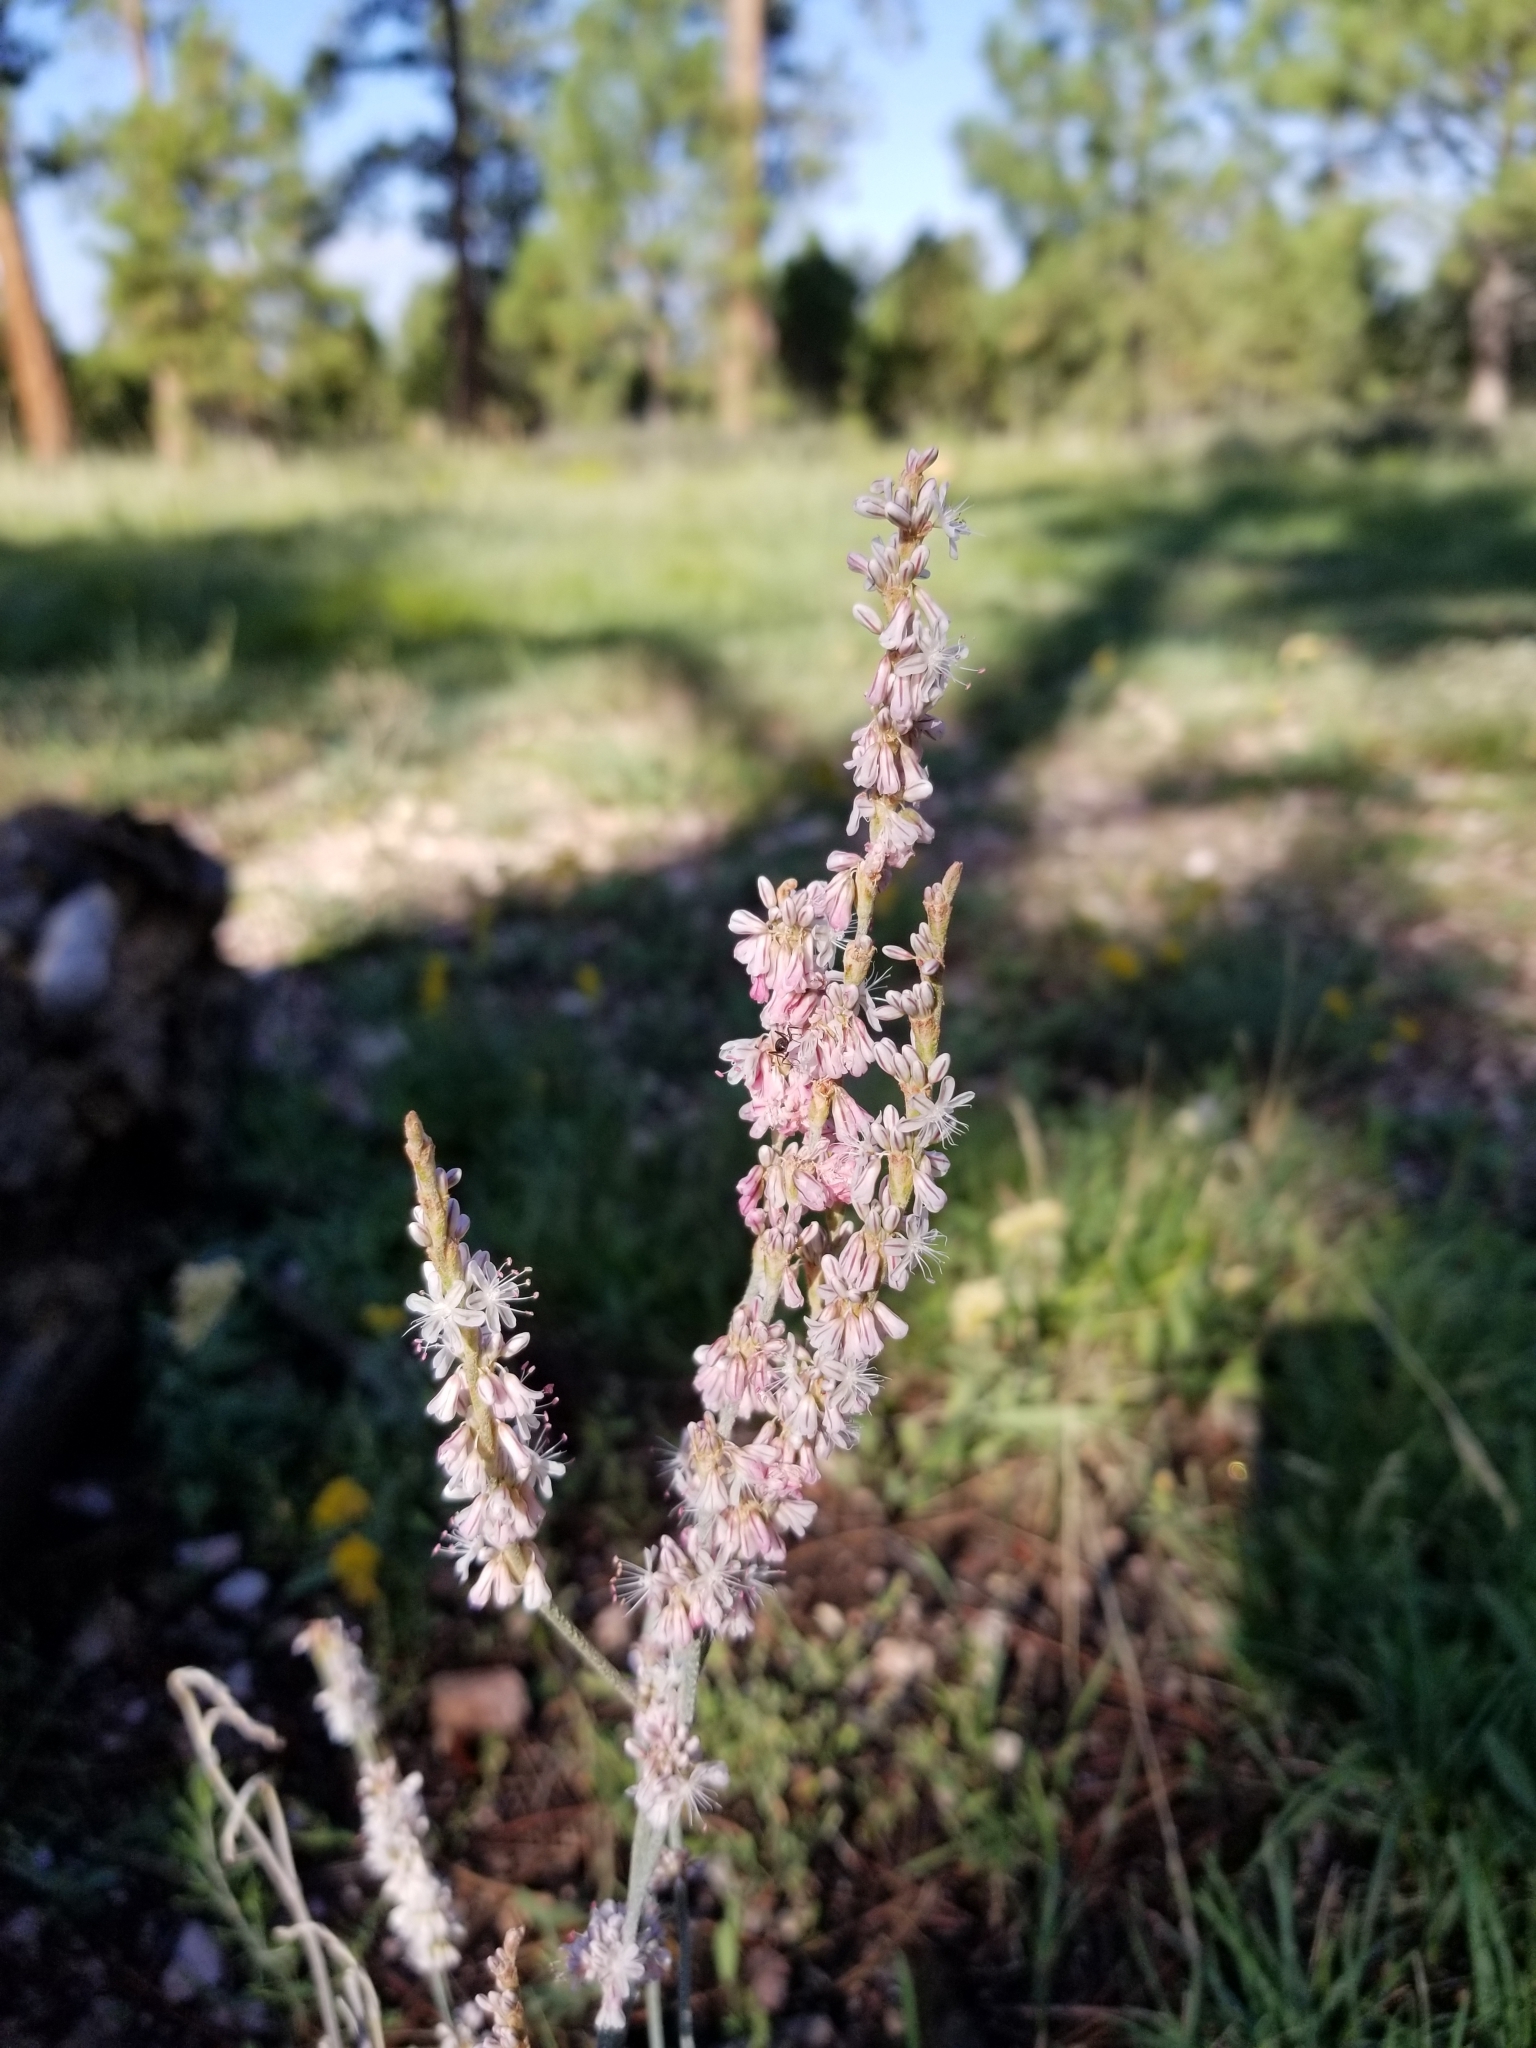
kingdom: Plantae
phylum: Tracheophyta
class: Magnoliopsida
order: Caryophyllales
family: Polygonaceae
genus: Eriogonum
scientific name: Eriogonum racemosum
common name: Redroot wild buckwheat
